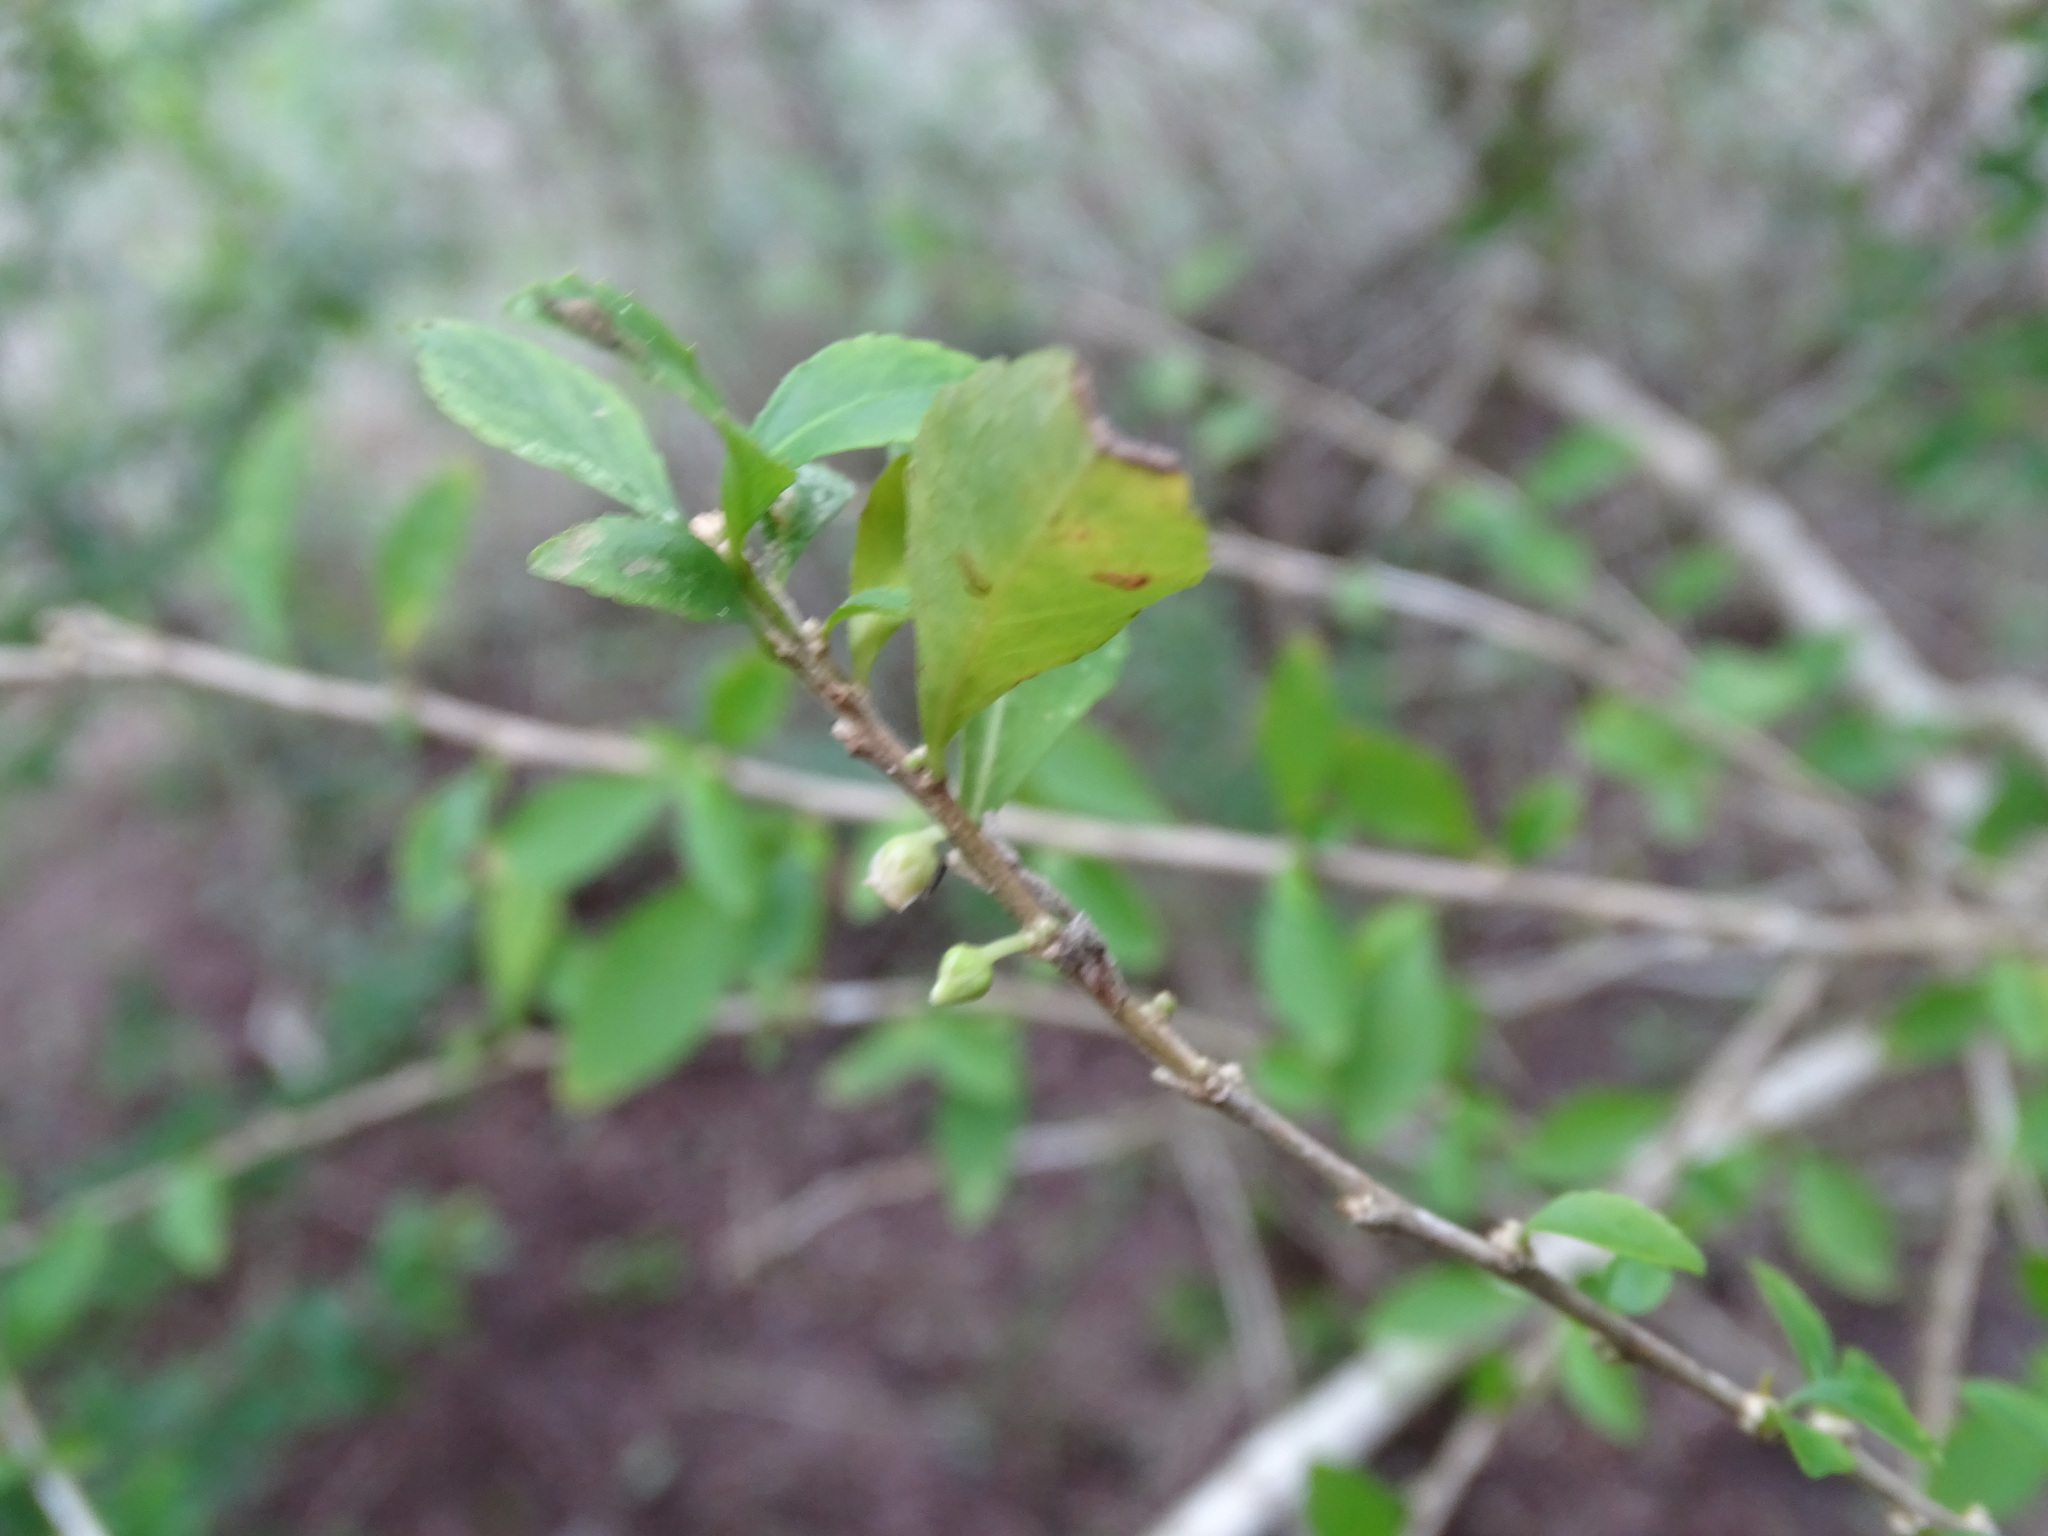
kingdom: Plantae
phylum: Tracheophyta
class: Magnoliopsida
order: Malpighiales
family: Violaceae
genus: Ixchelia
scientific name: Ixchelia mexicana
